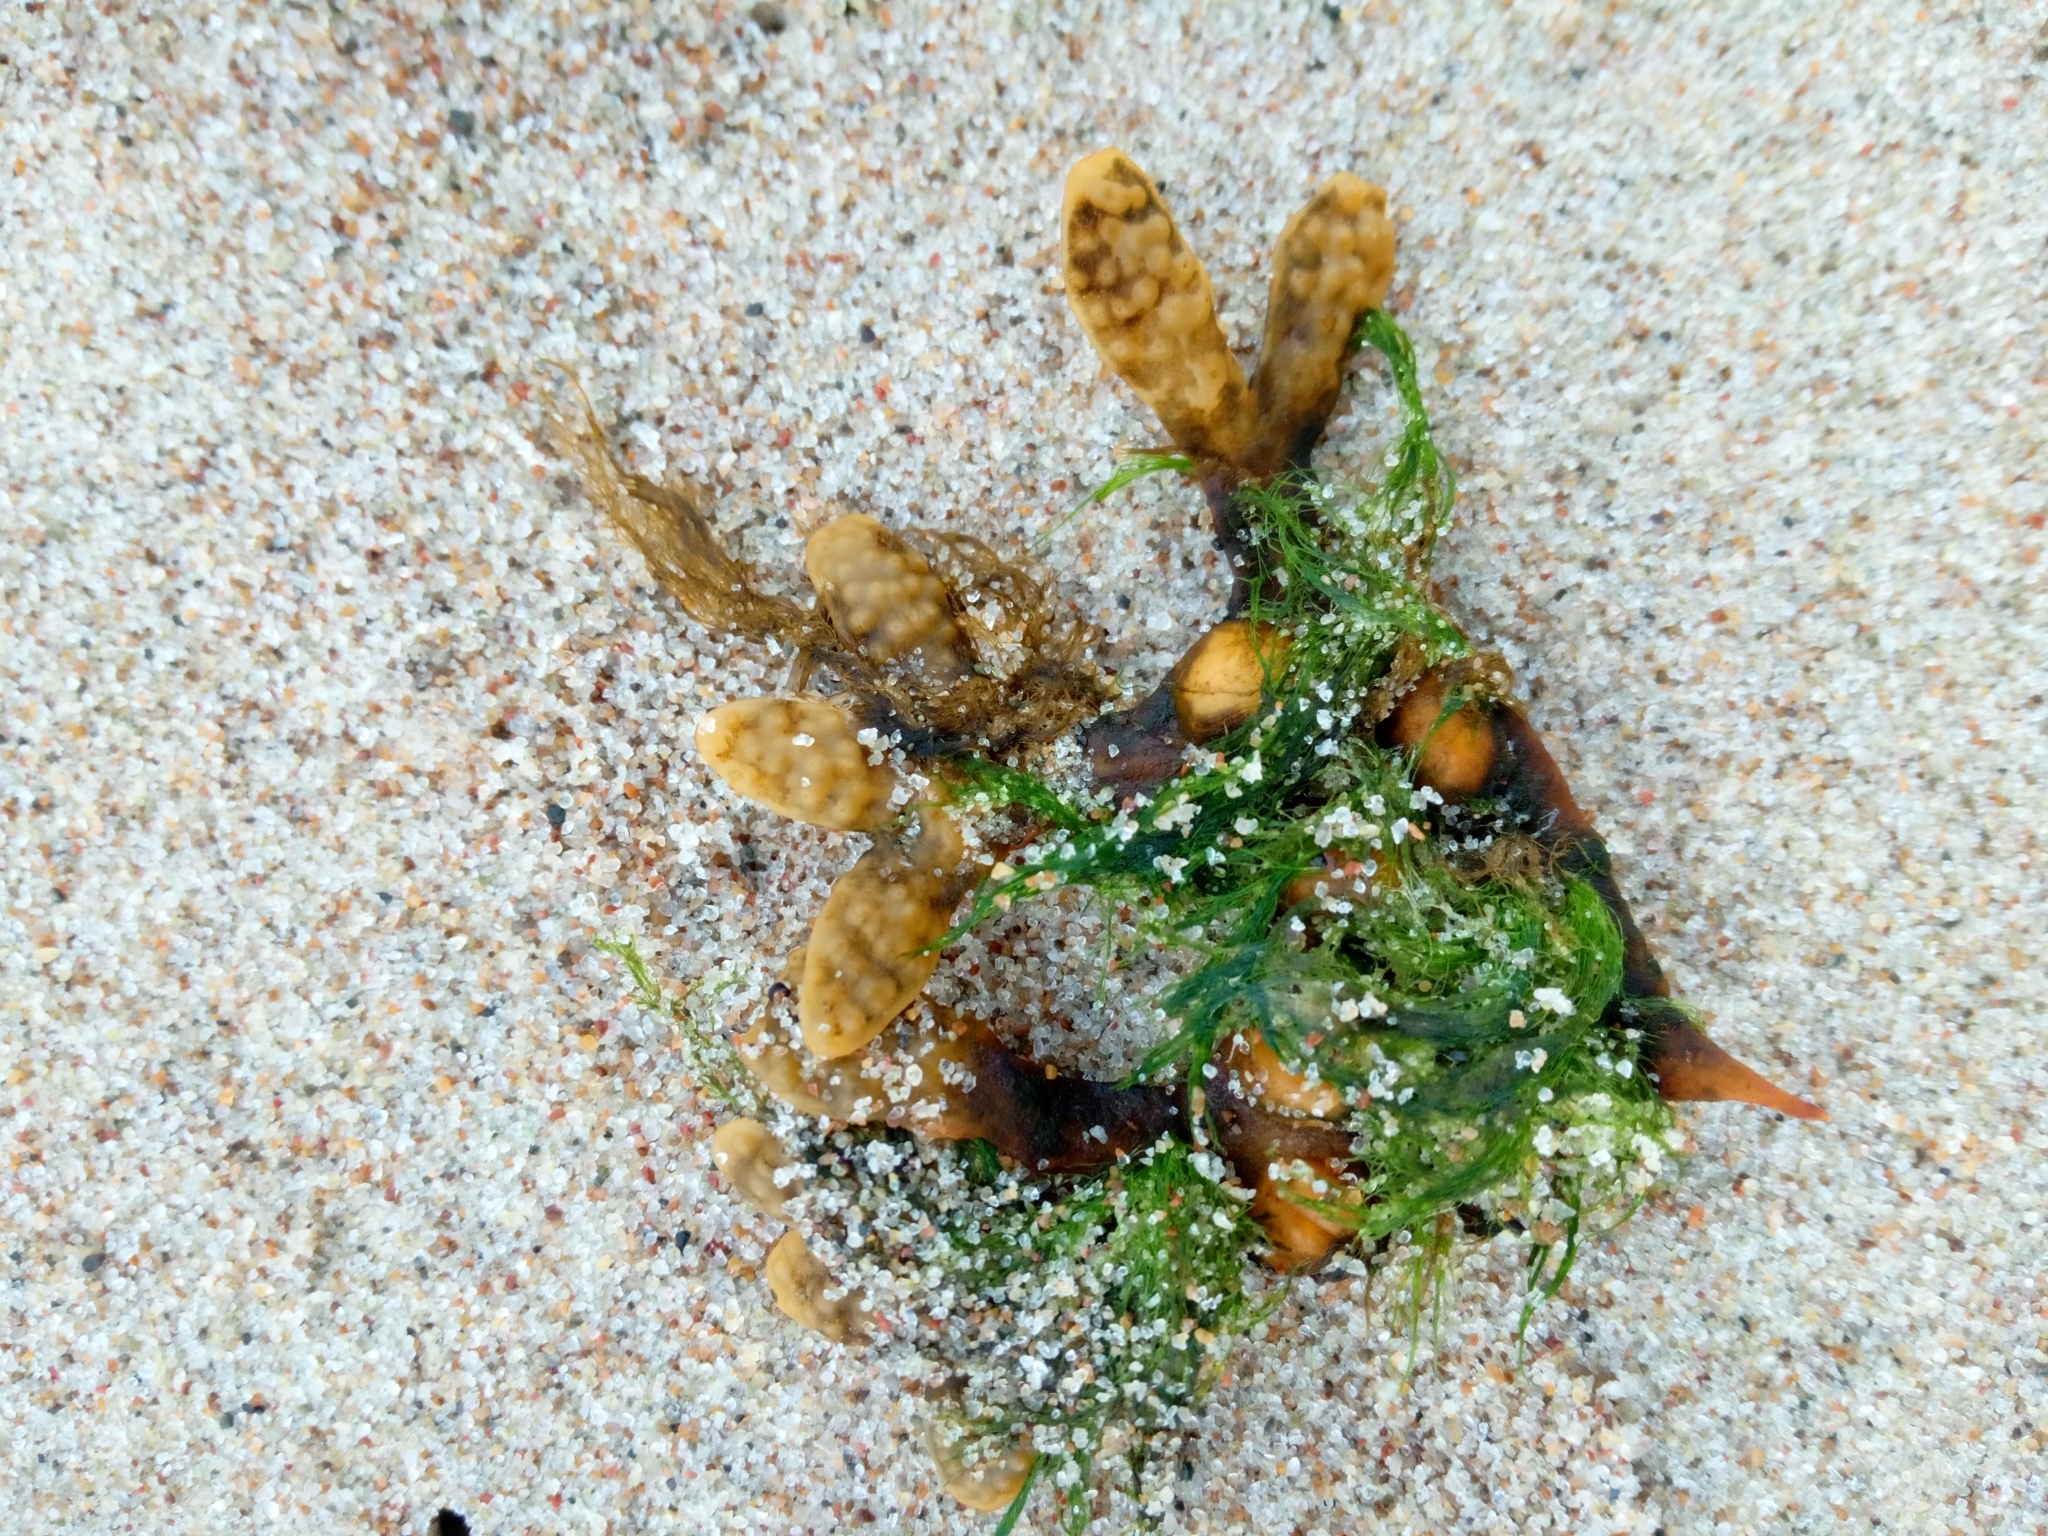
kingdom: Chromista
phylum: Ochrophyta
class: Phaeophyceae
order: Fucales
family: Fucaceae
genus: Fucus
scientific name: Fucus vesiculosus
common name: Bladder wrack
